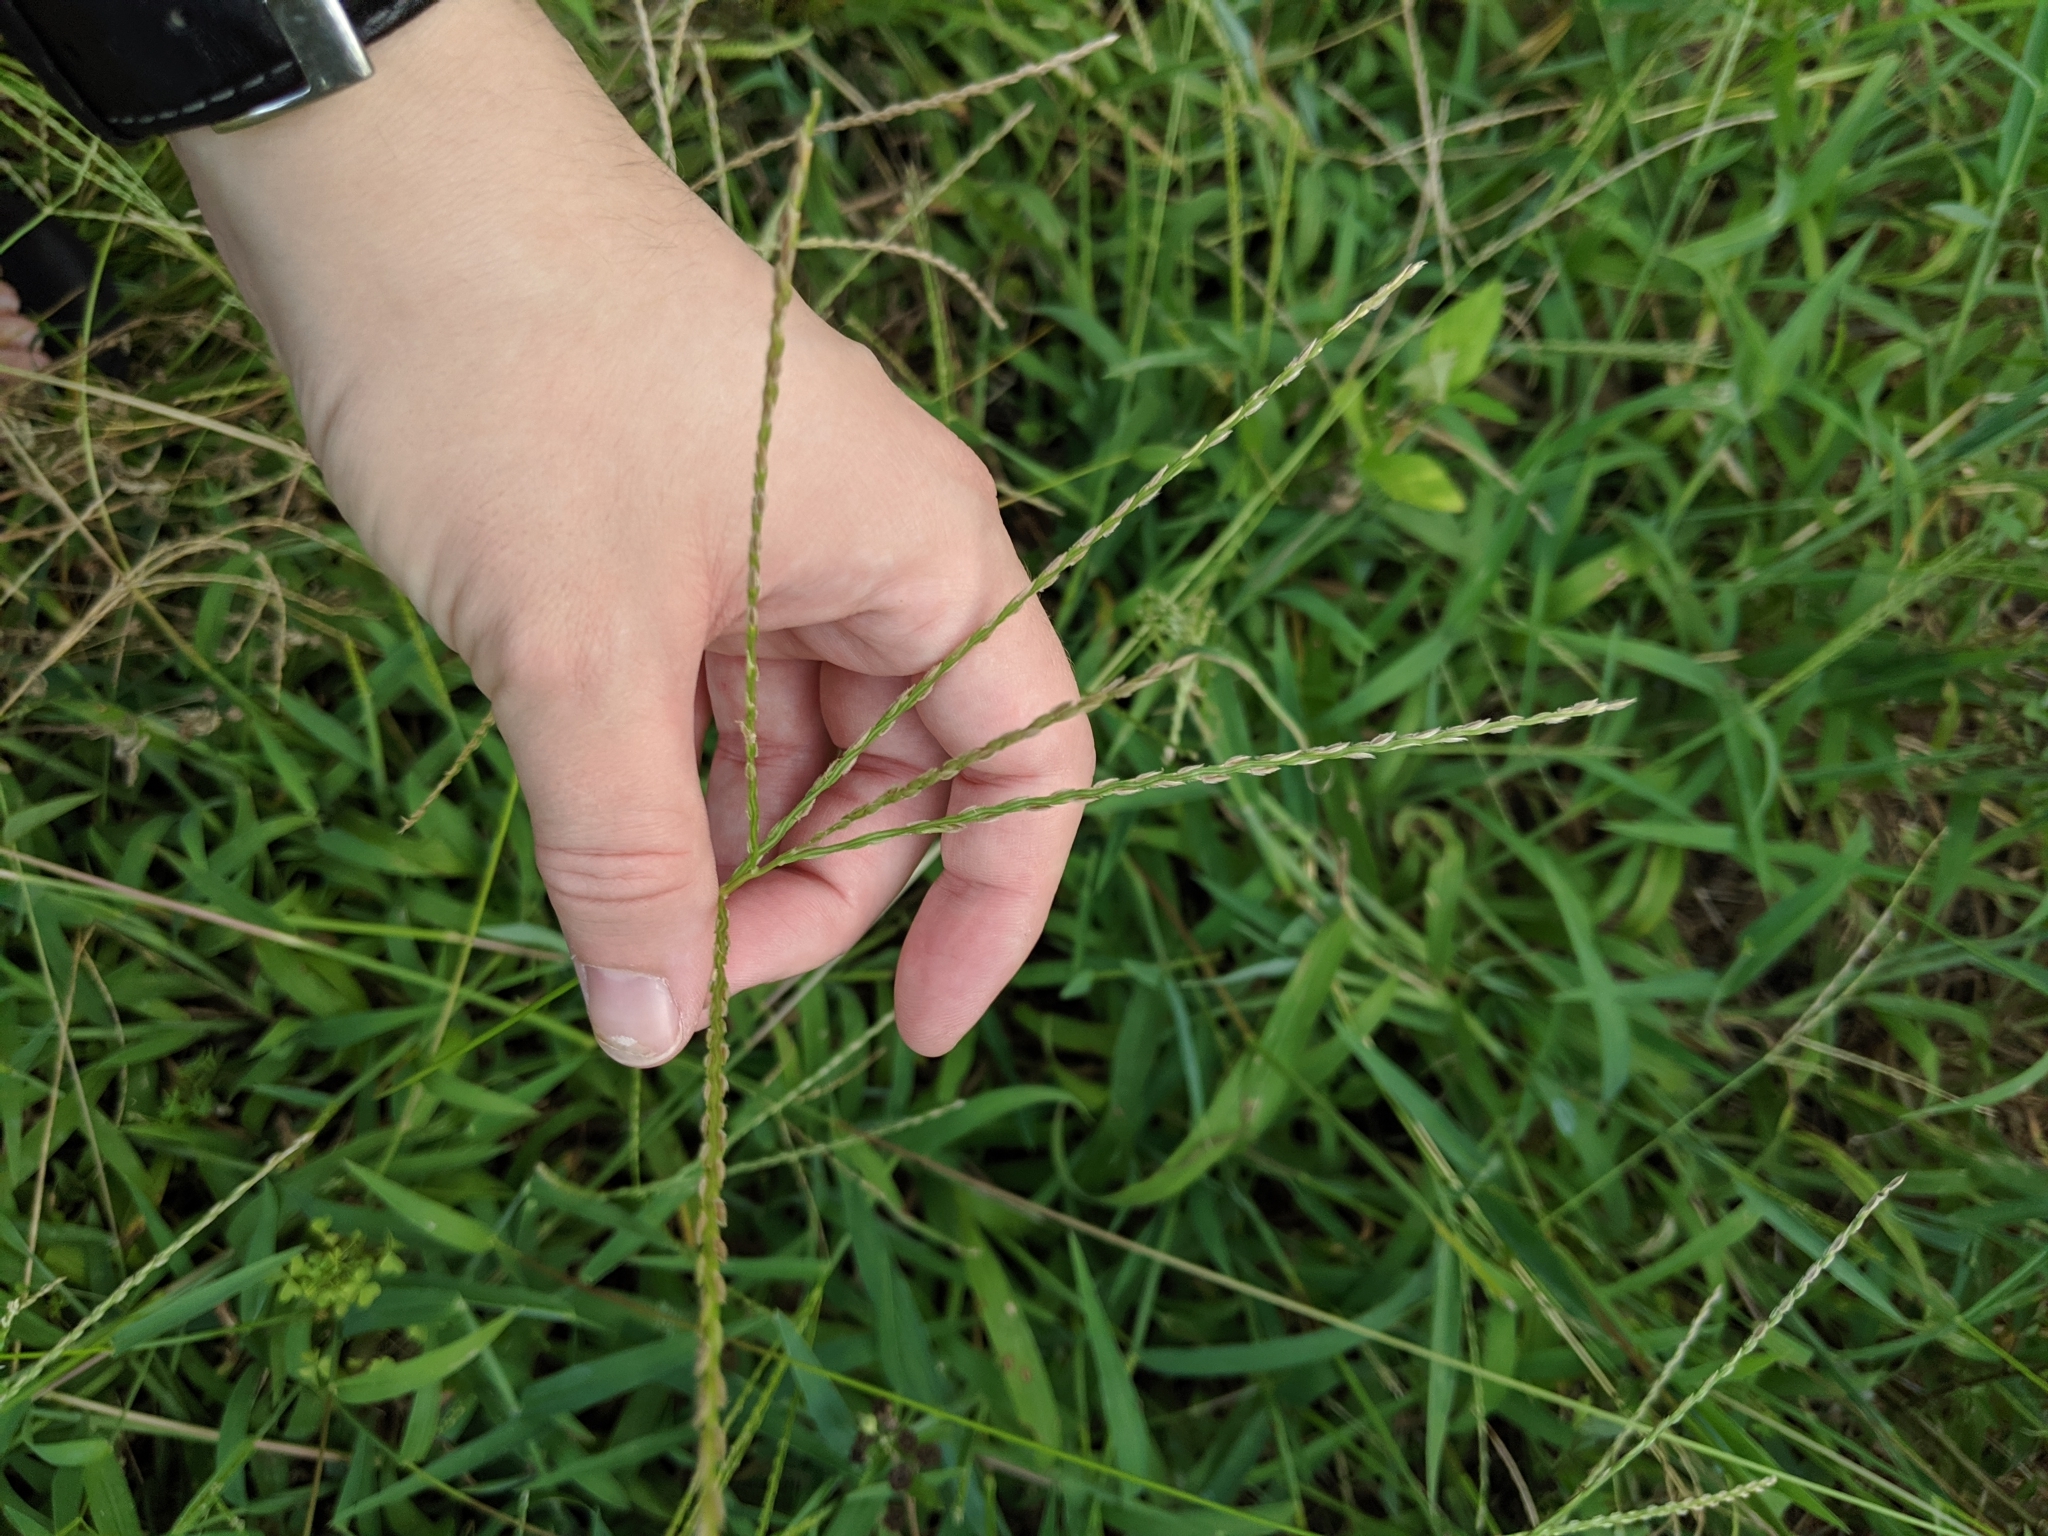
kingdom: Plantae
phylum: Tracheophyta
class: Liliopsida
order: Poales
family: Poaceae
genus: Digitaria
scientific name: Digitaria sanguinalis
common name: Hairy crabgrass
